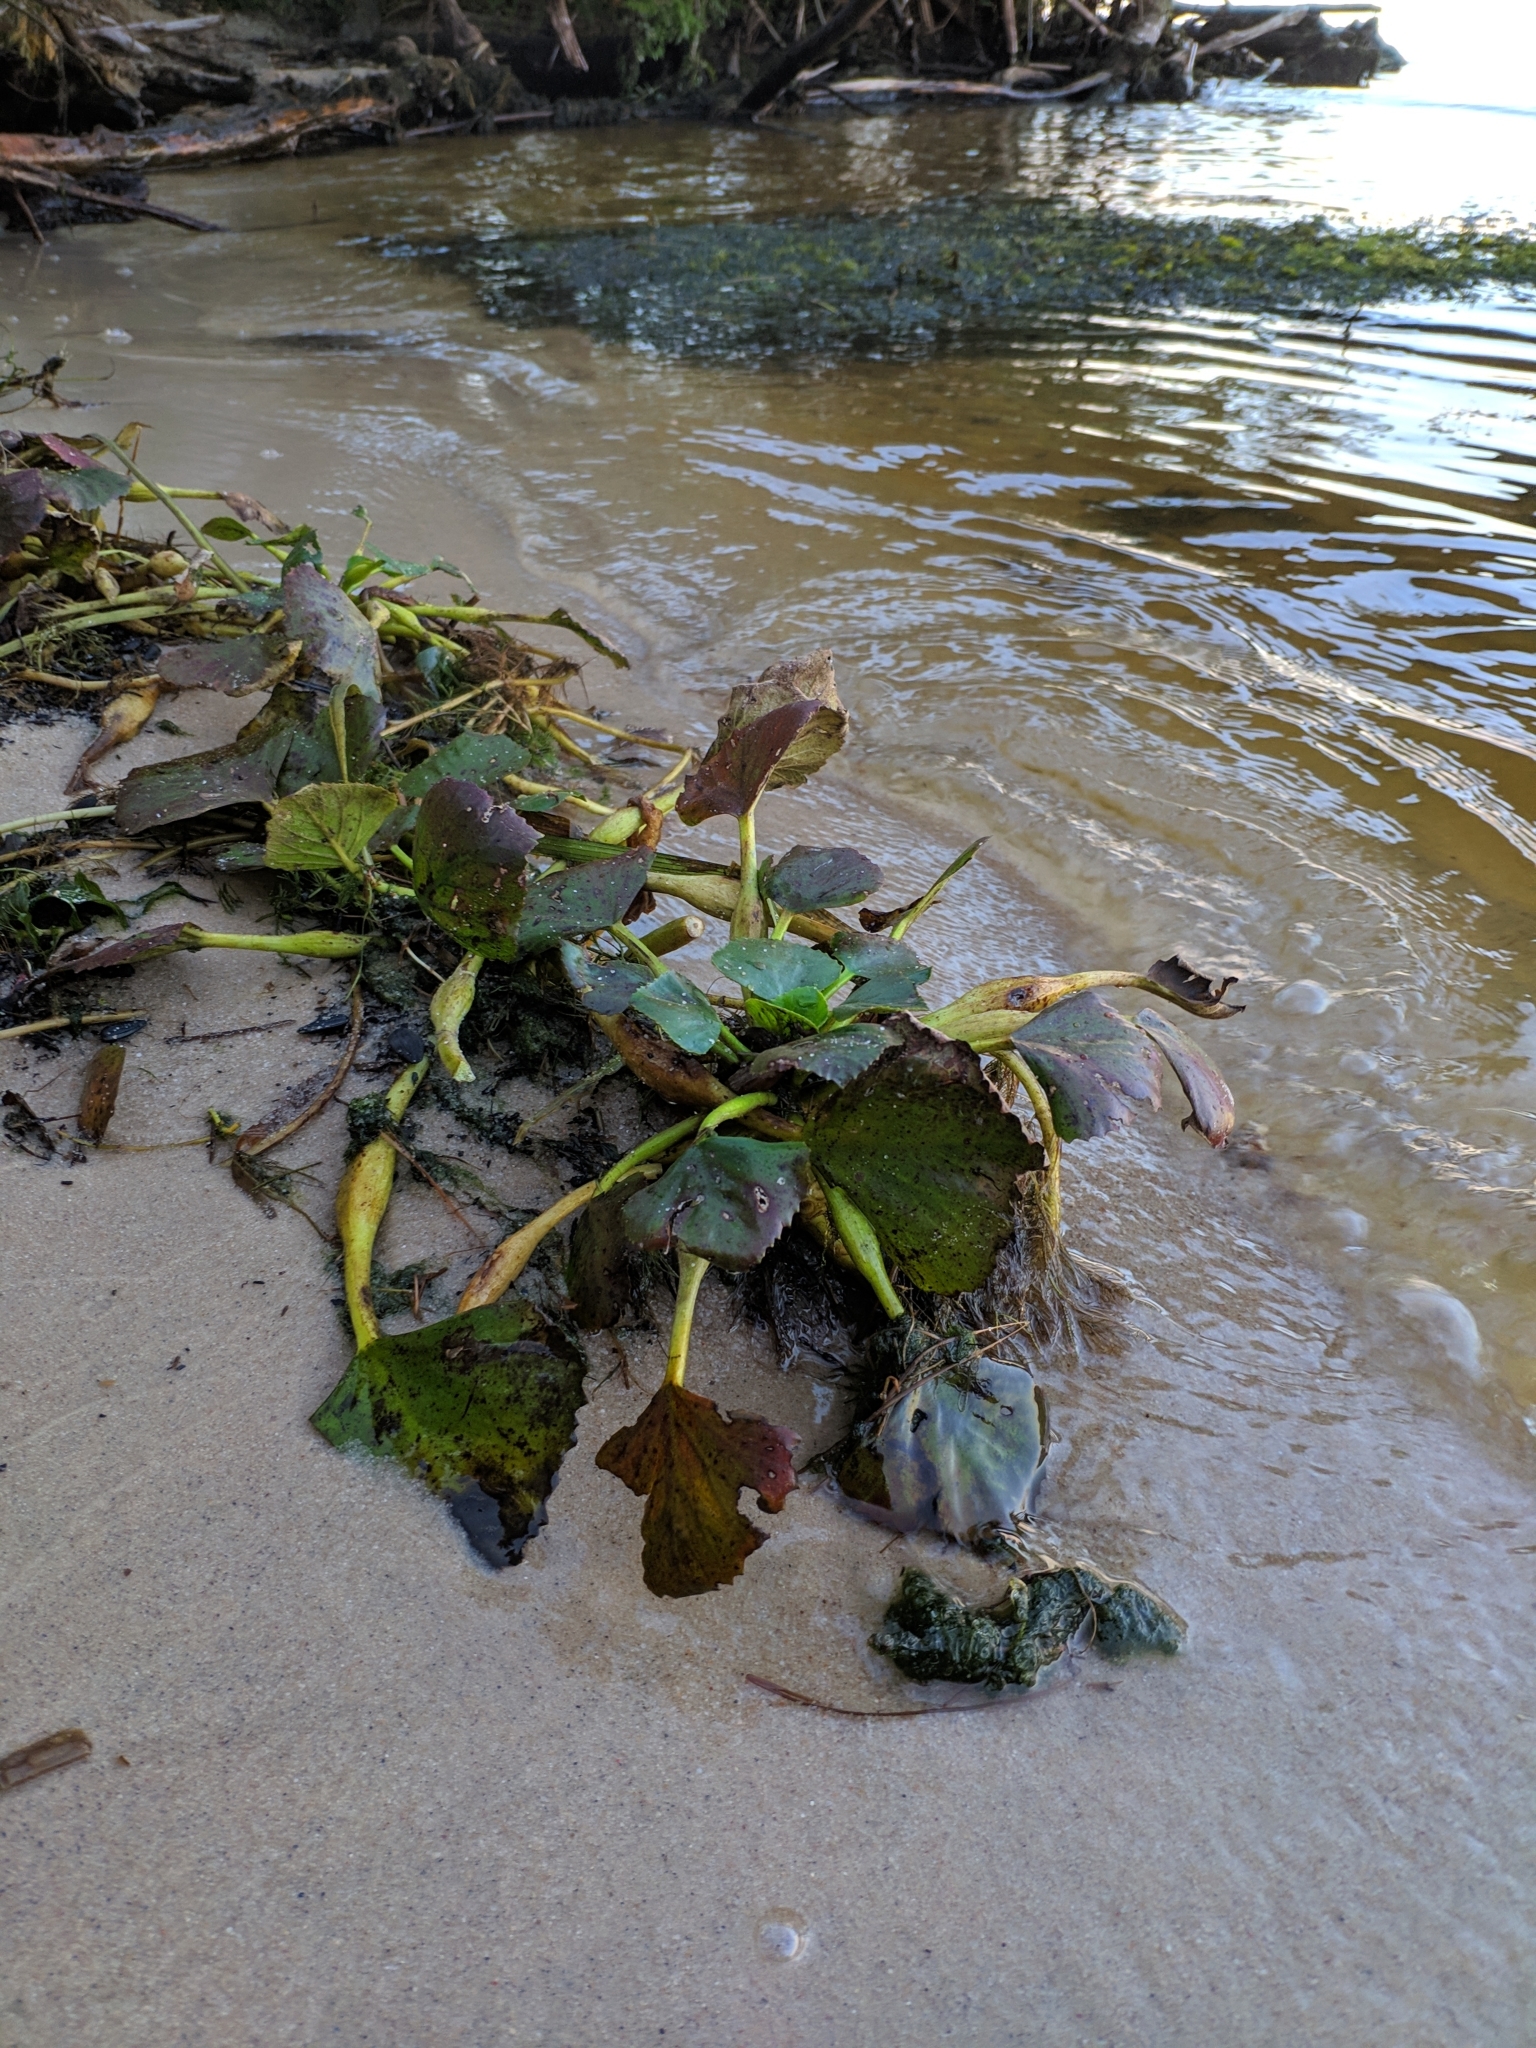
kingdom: Plantae
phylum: Tracheophyta
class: Magnoliopsida
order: Myrtales
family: Lythraceae
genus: Trapa
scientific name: Trapa natans
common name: Water chestnut
